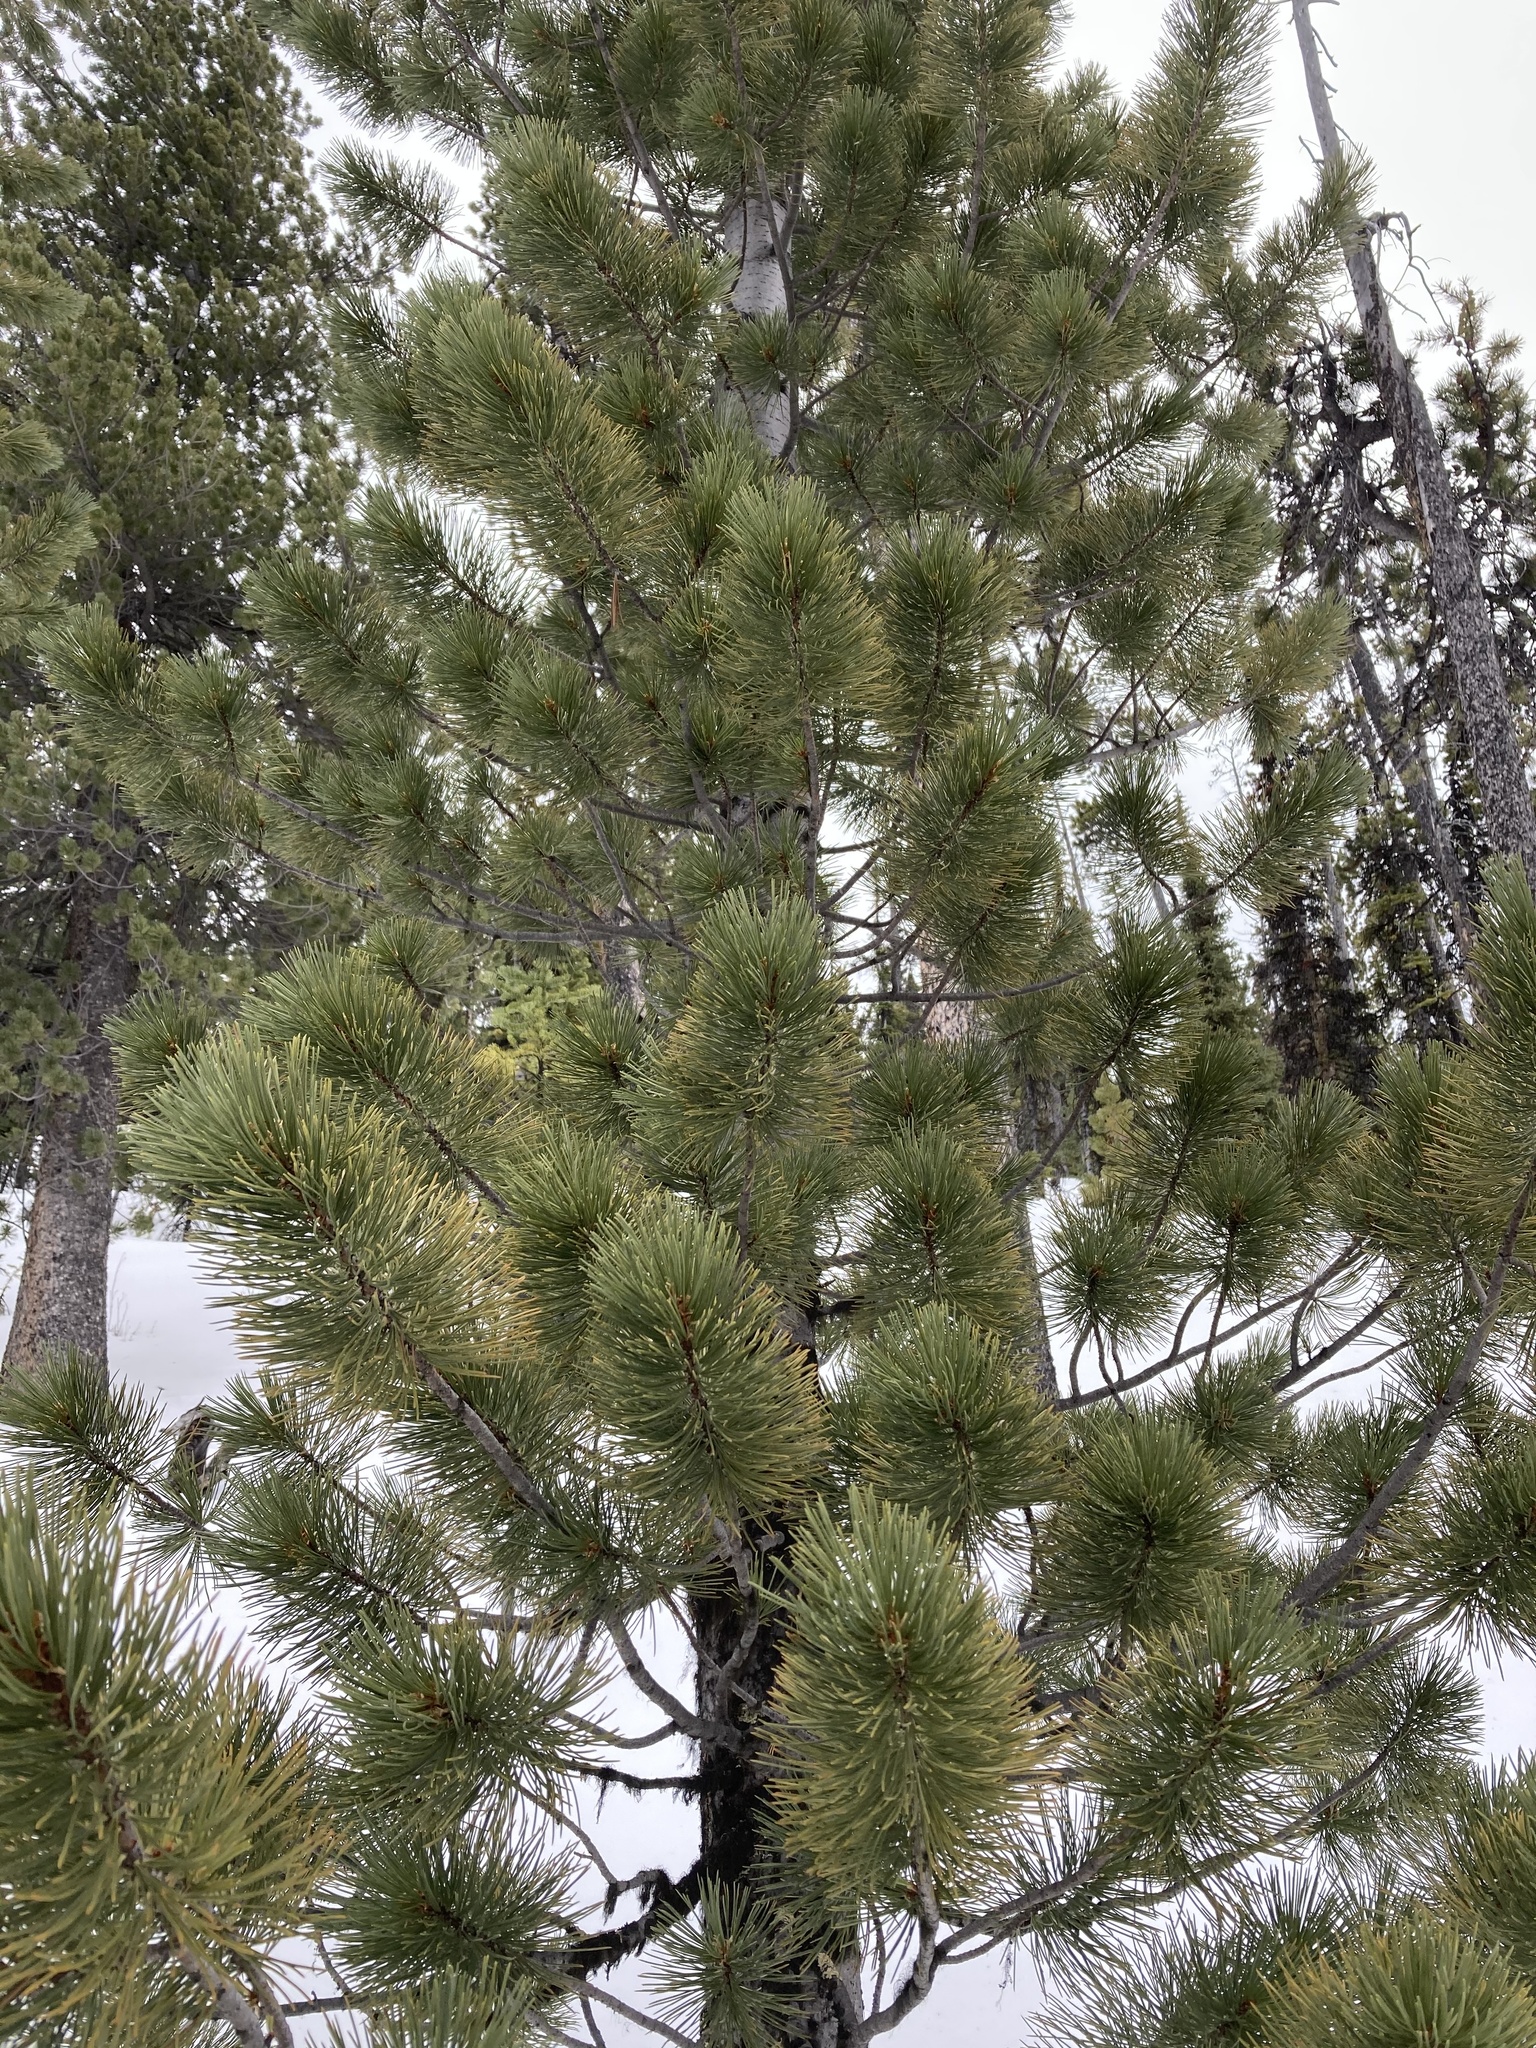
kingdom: Plantae
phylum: Tracheophyta
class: Pinopsida
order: Pinales
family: Pinaceae
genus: Pinus
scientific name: Pinus albicaulis
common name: Whitebark pine
